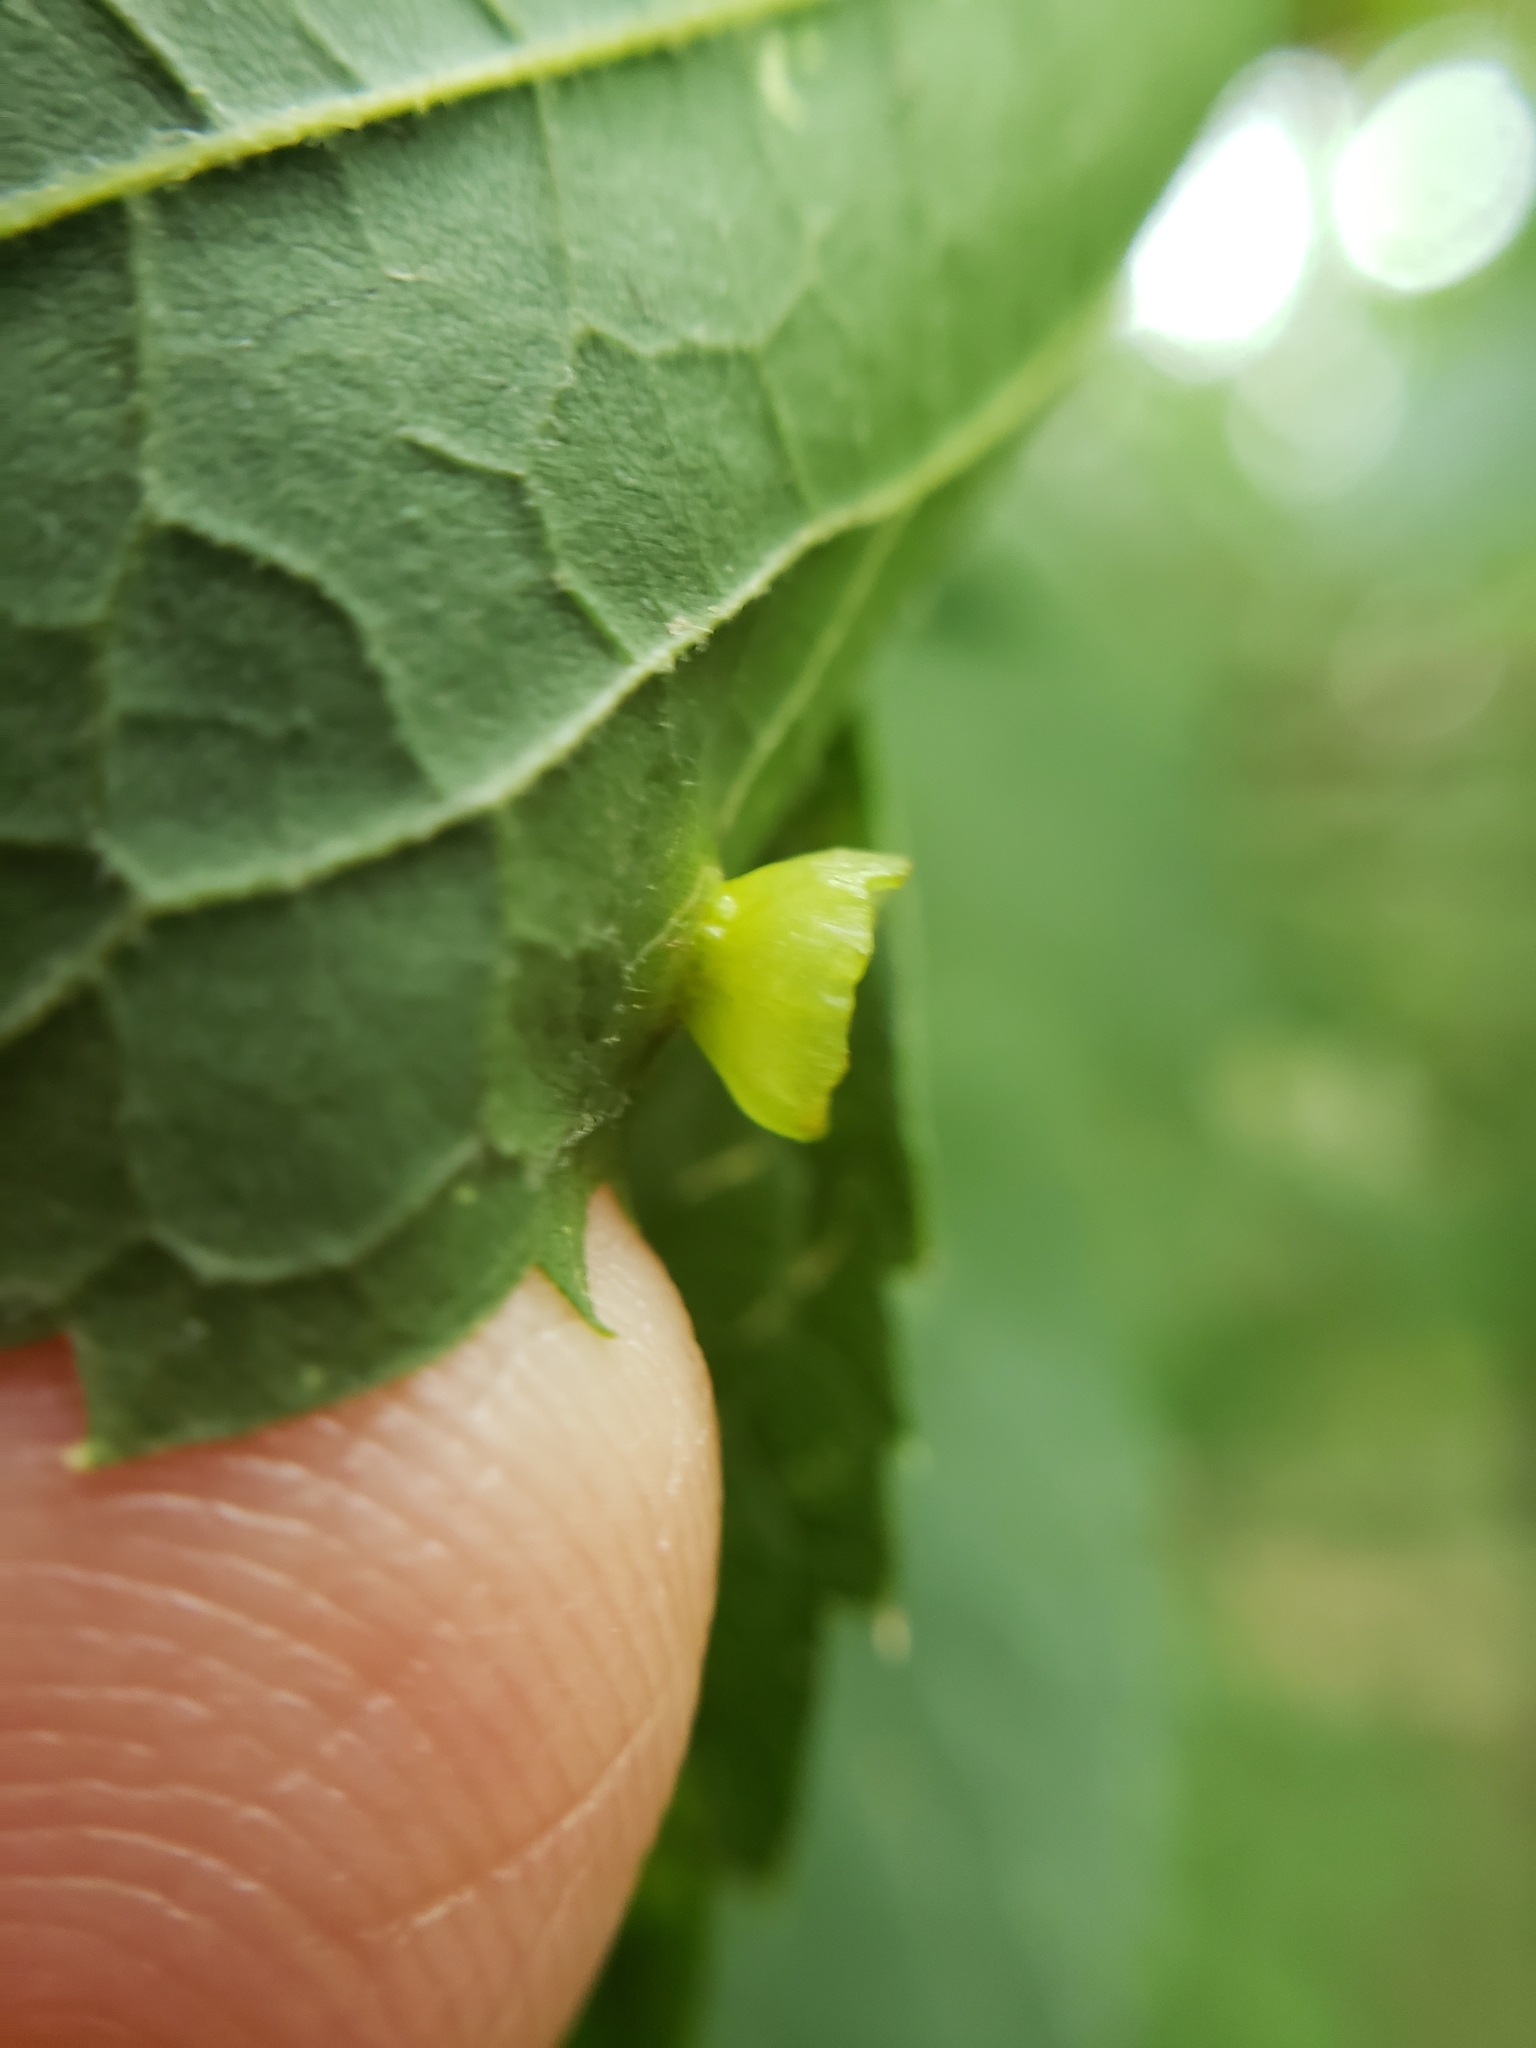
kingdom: Animalia
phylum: Arthropoda
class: Insecta
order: Hemiptera
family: Aphalaridae
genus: Pachypsylla
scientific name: Pachypsylla celtidisasterisca
